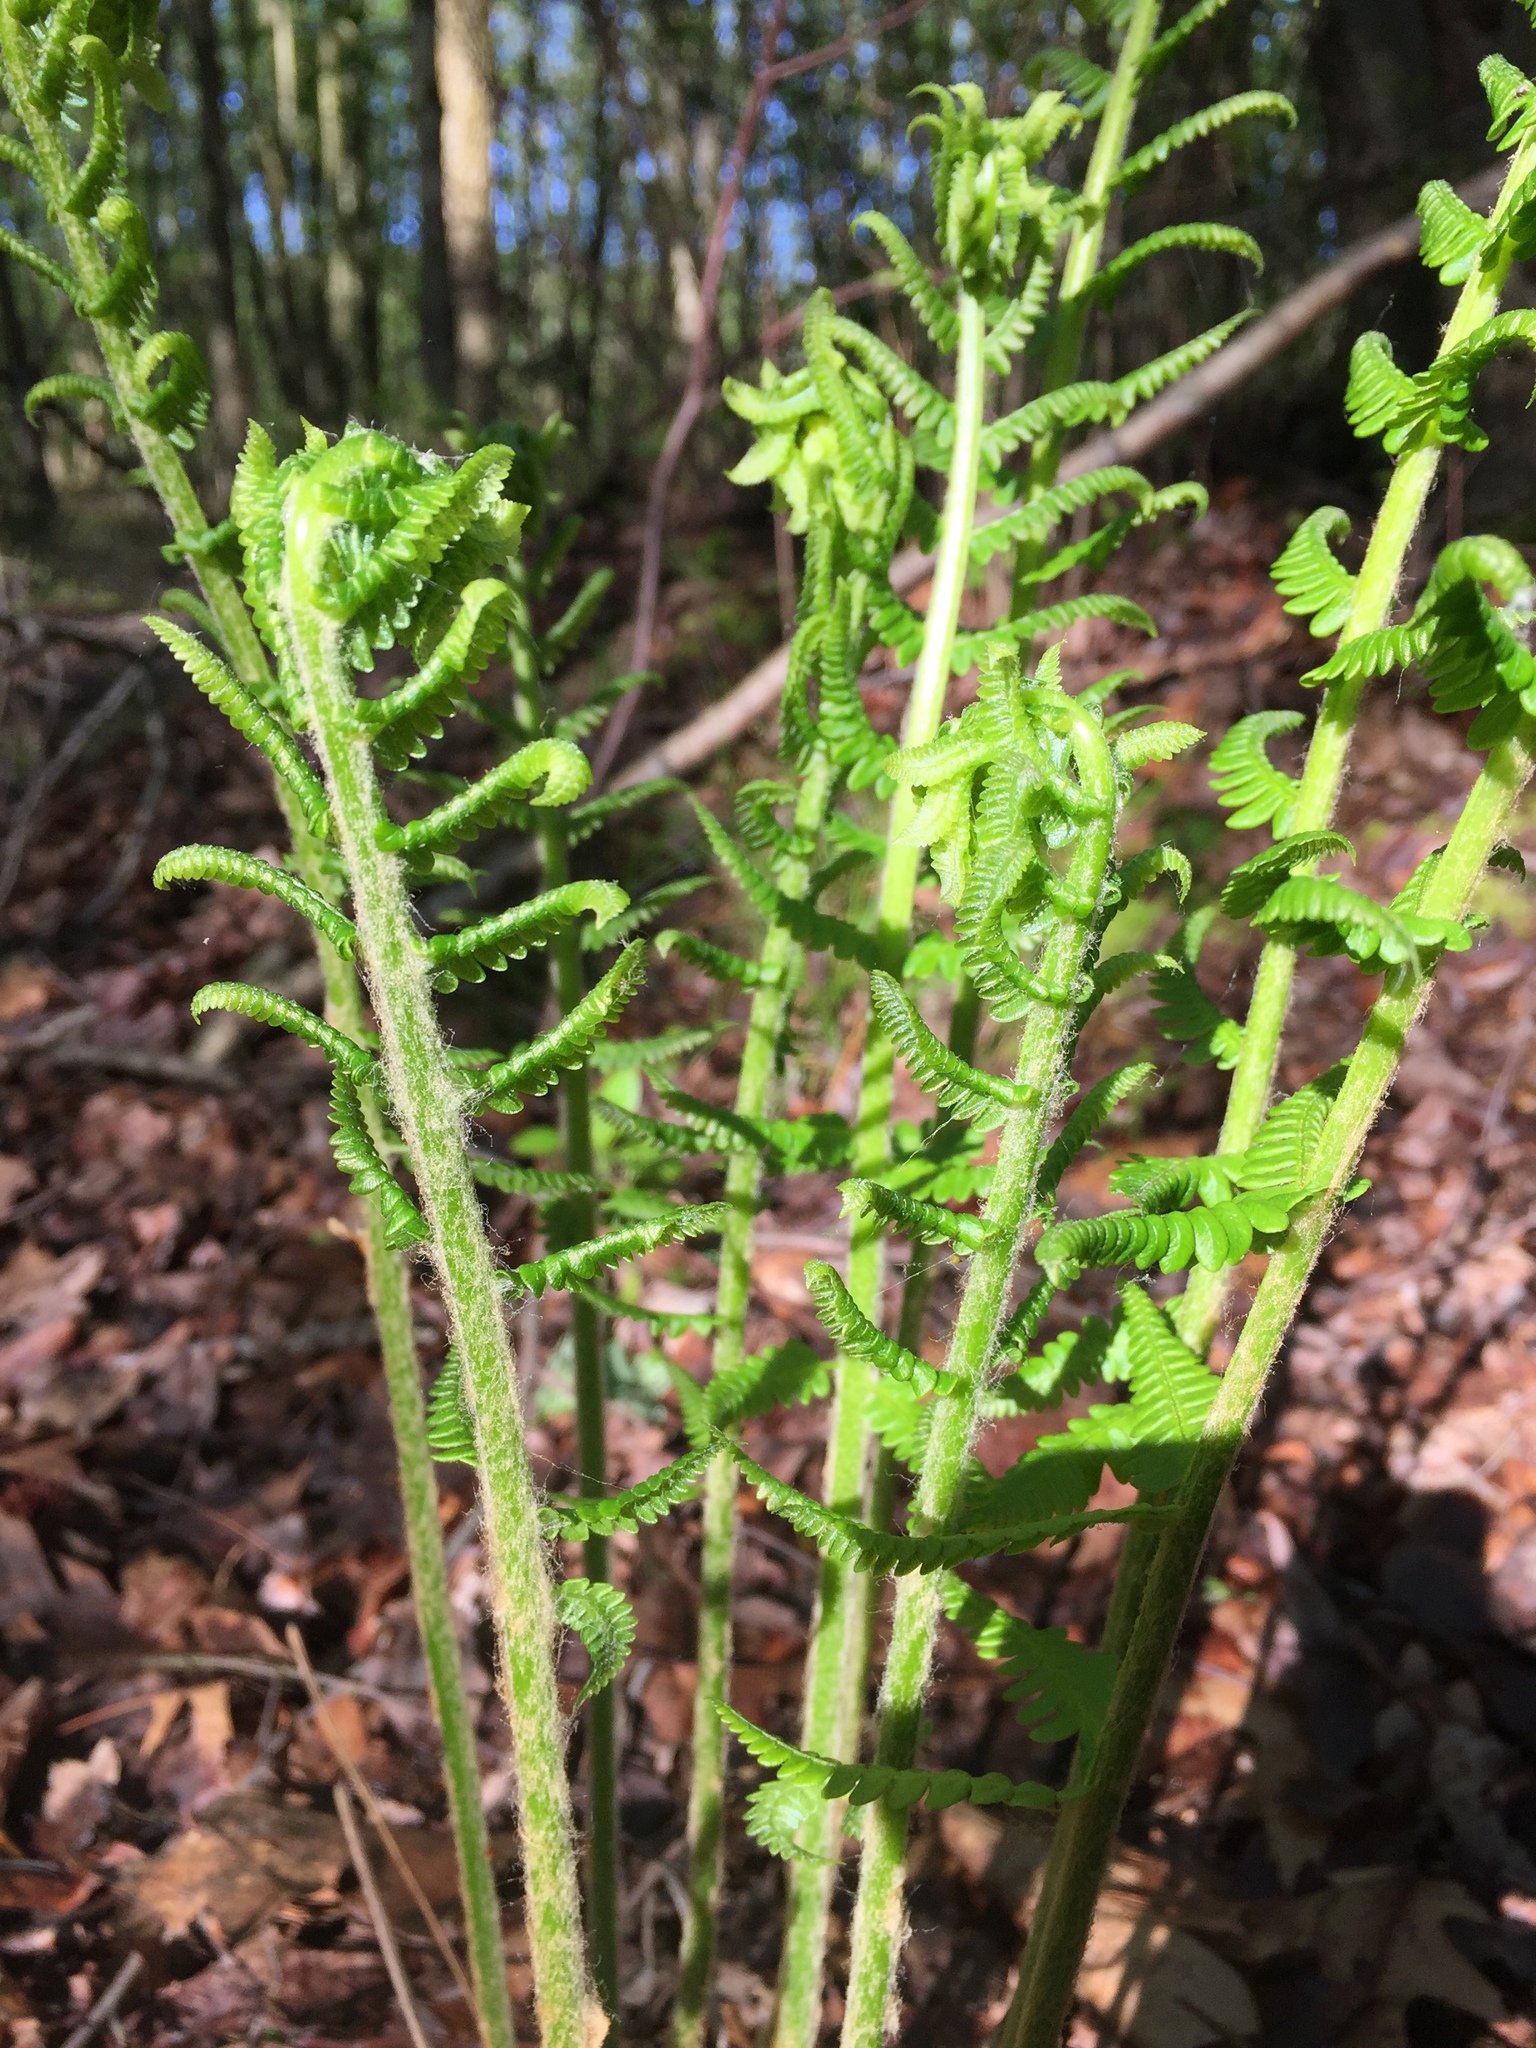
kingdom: Plantae
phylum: Tracheophyta
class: Polypodiopsida
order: Osmundales
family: Osmundaceae
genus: Osmundastrum
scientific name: Osmundastrum cinnamomeum
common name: Cinnamon fern
